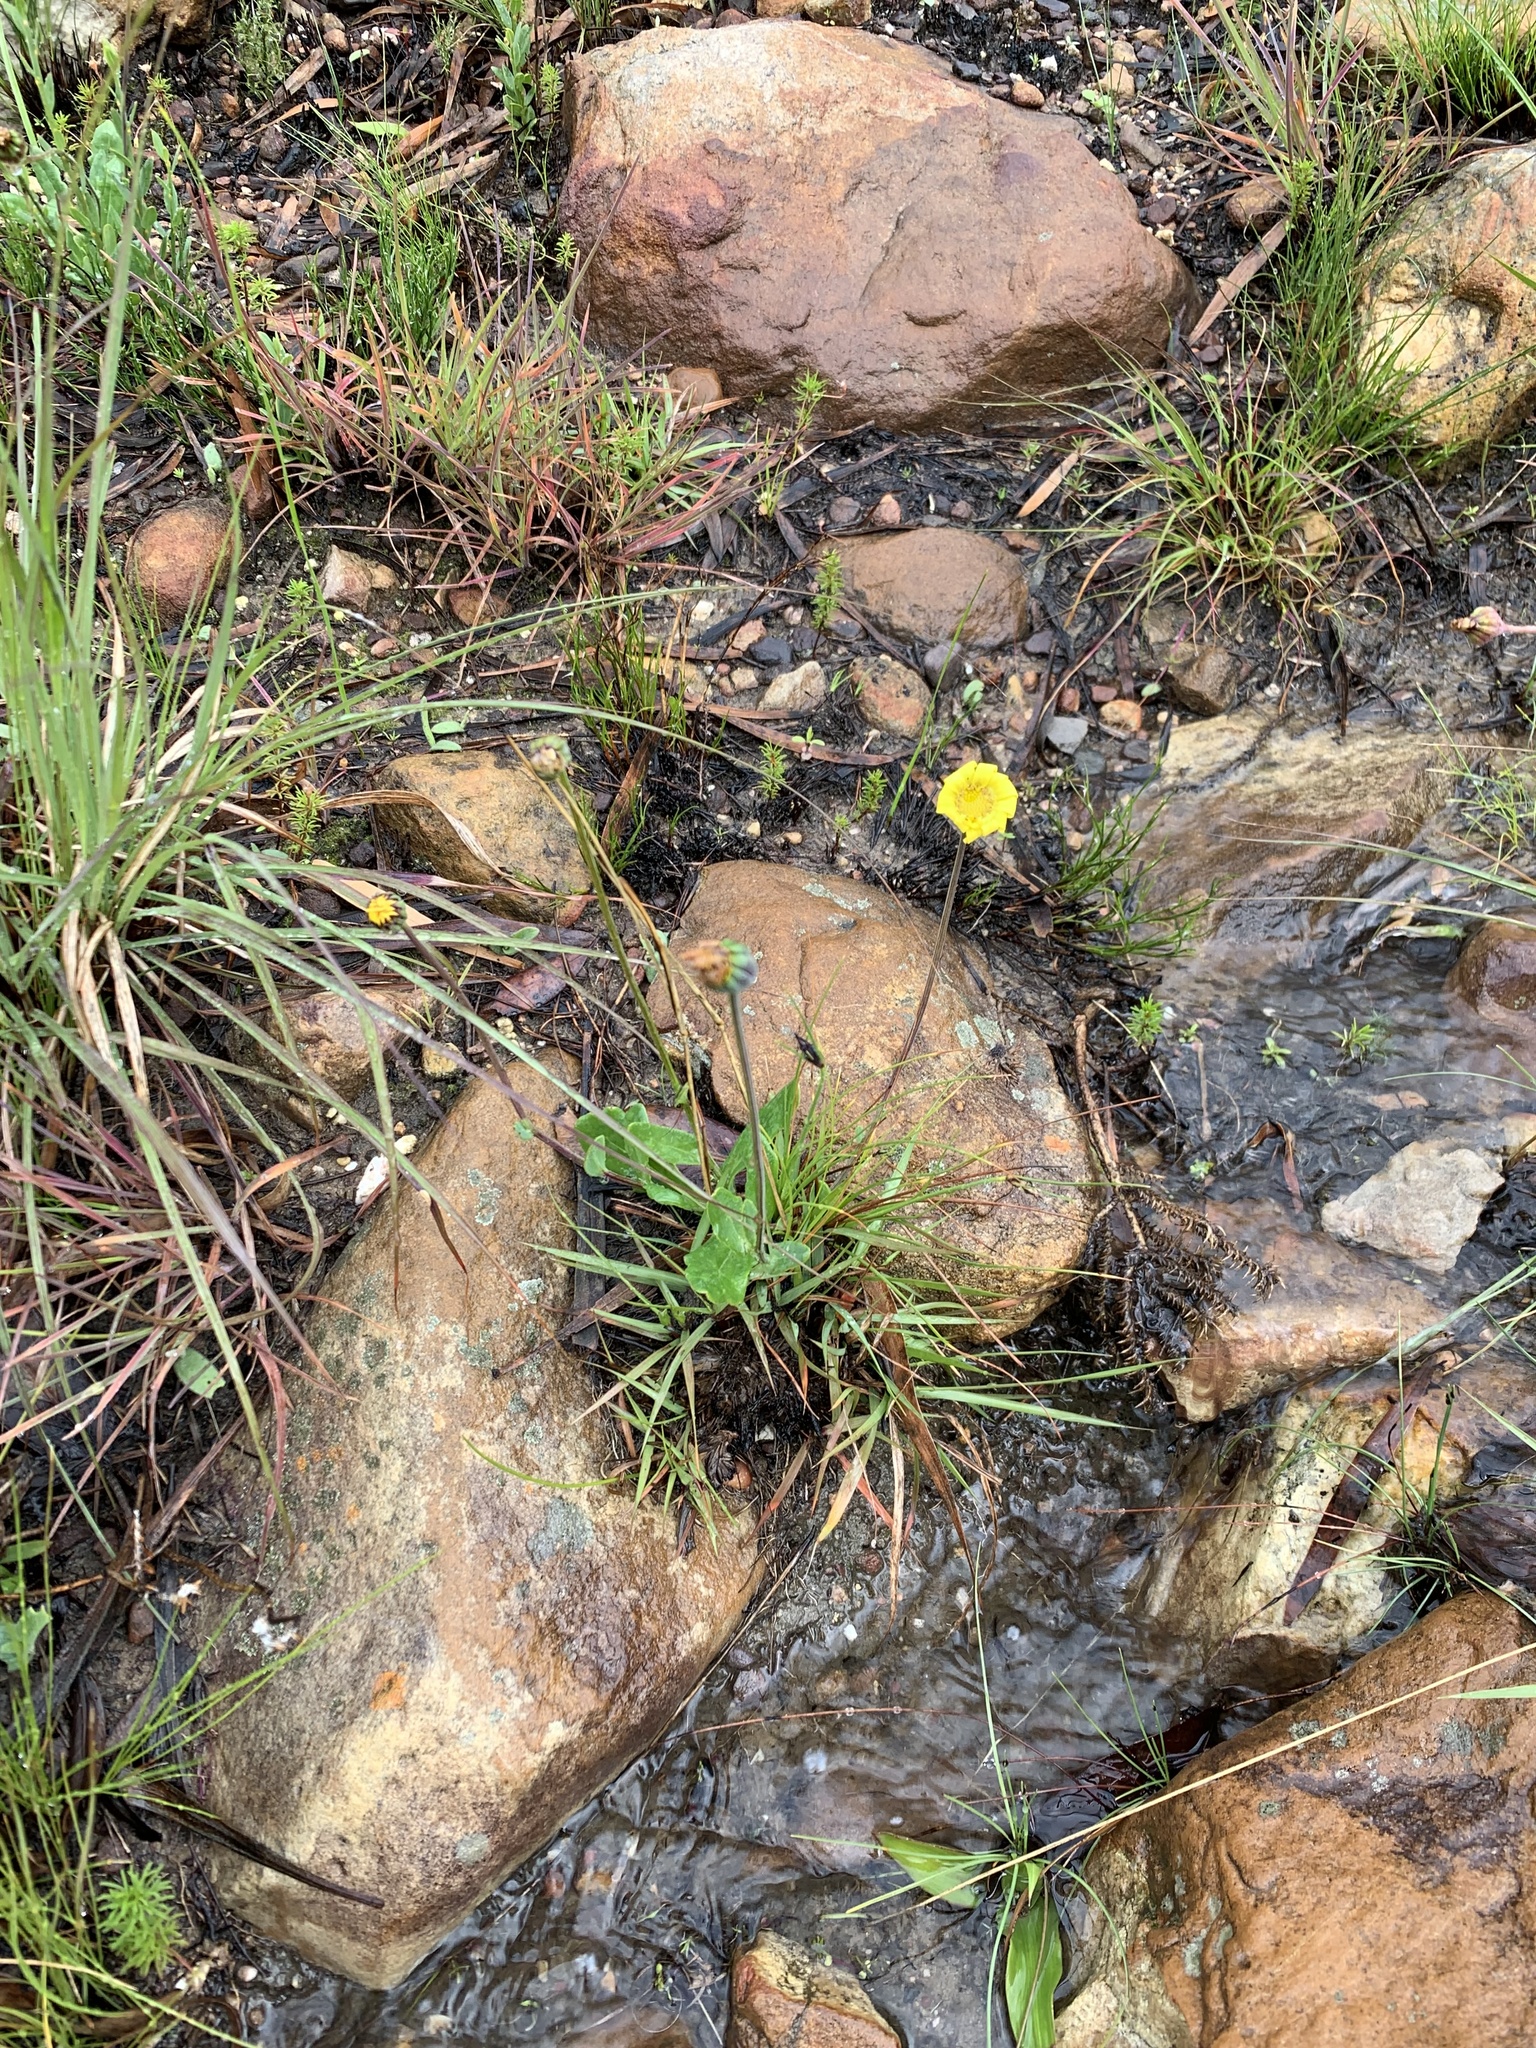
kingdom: Plantae
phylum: Tracheophyta
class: Magnoliopsida
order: Asterales
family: Asteraceae
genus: Othonna
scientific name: Othonna bulbosa
